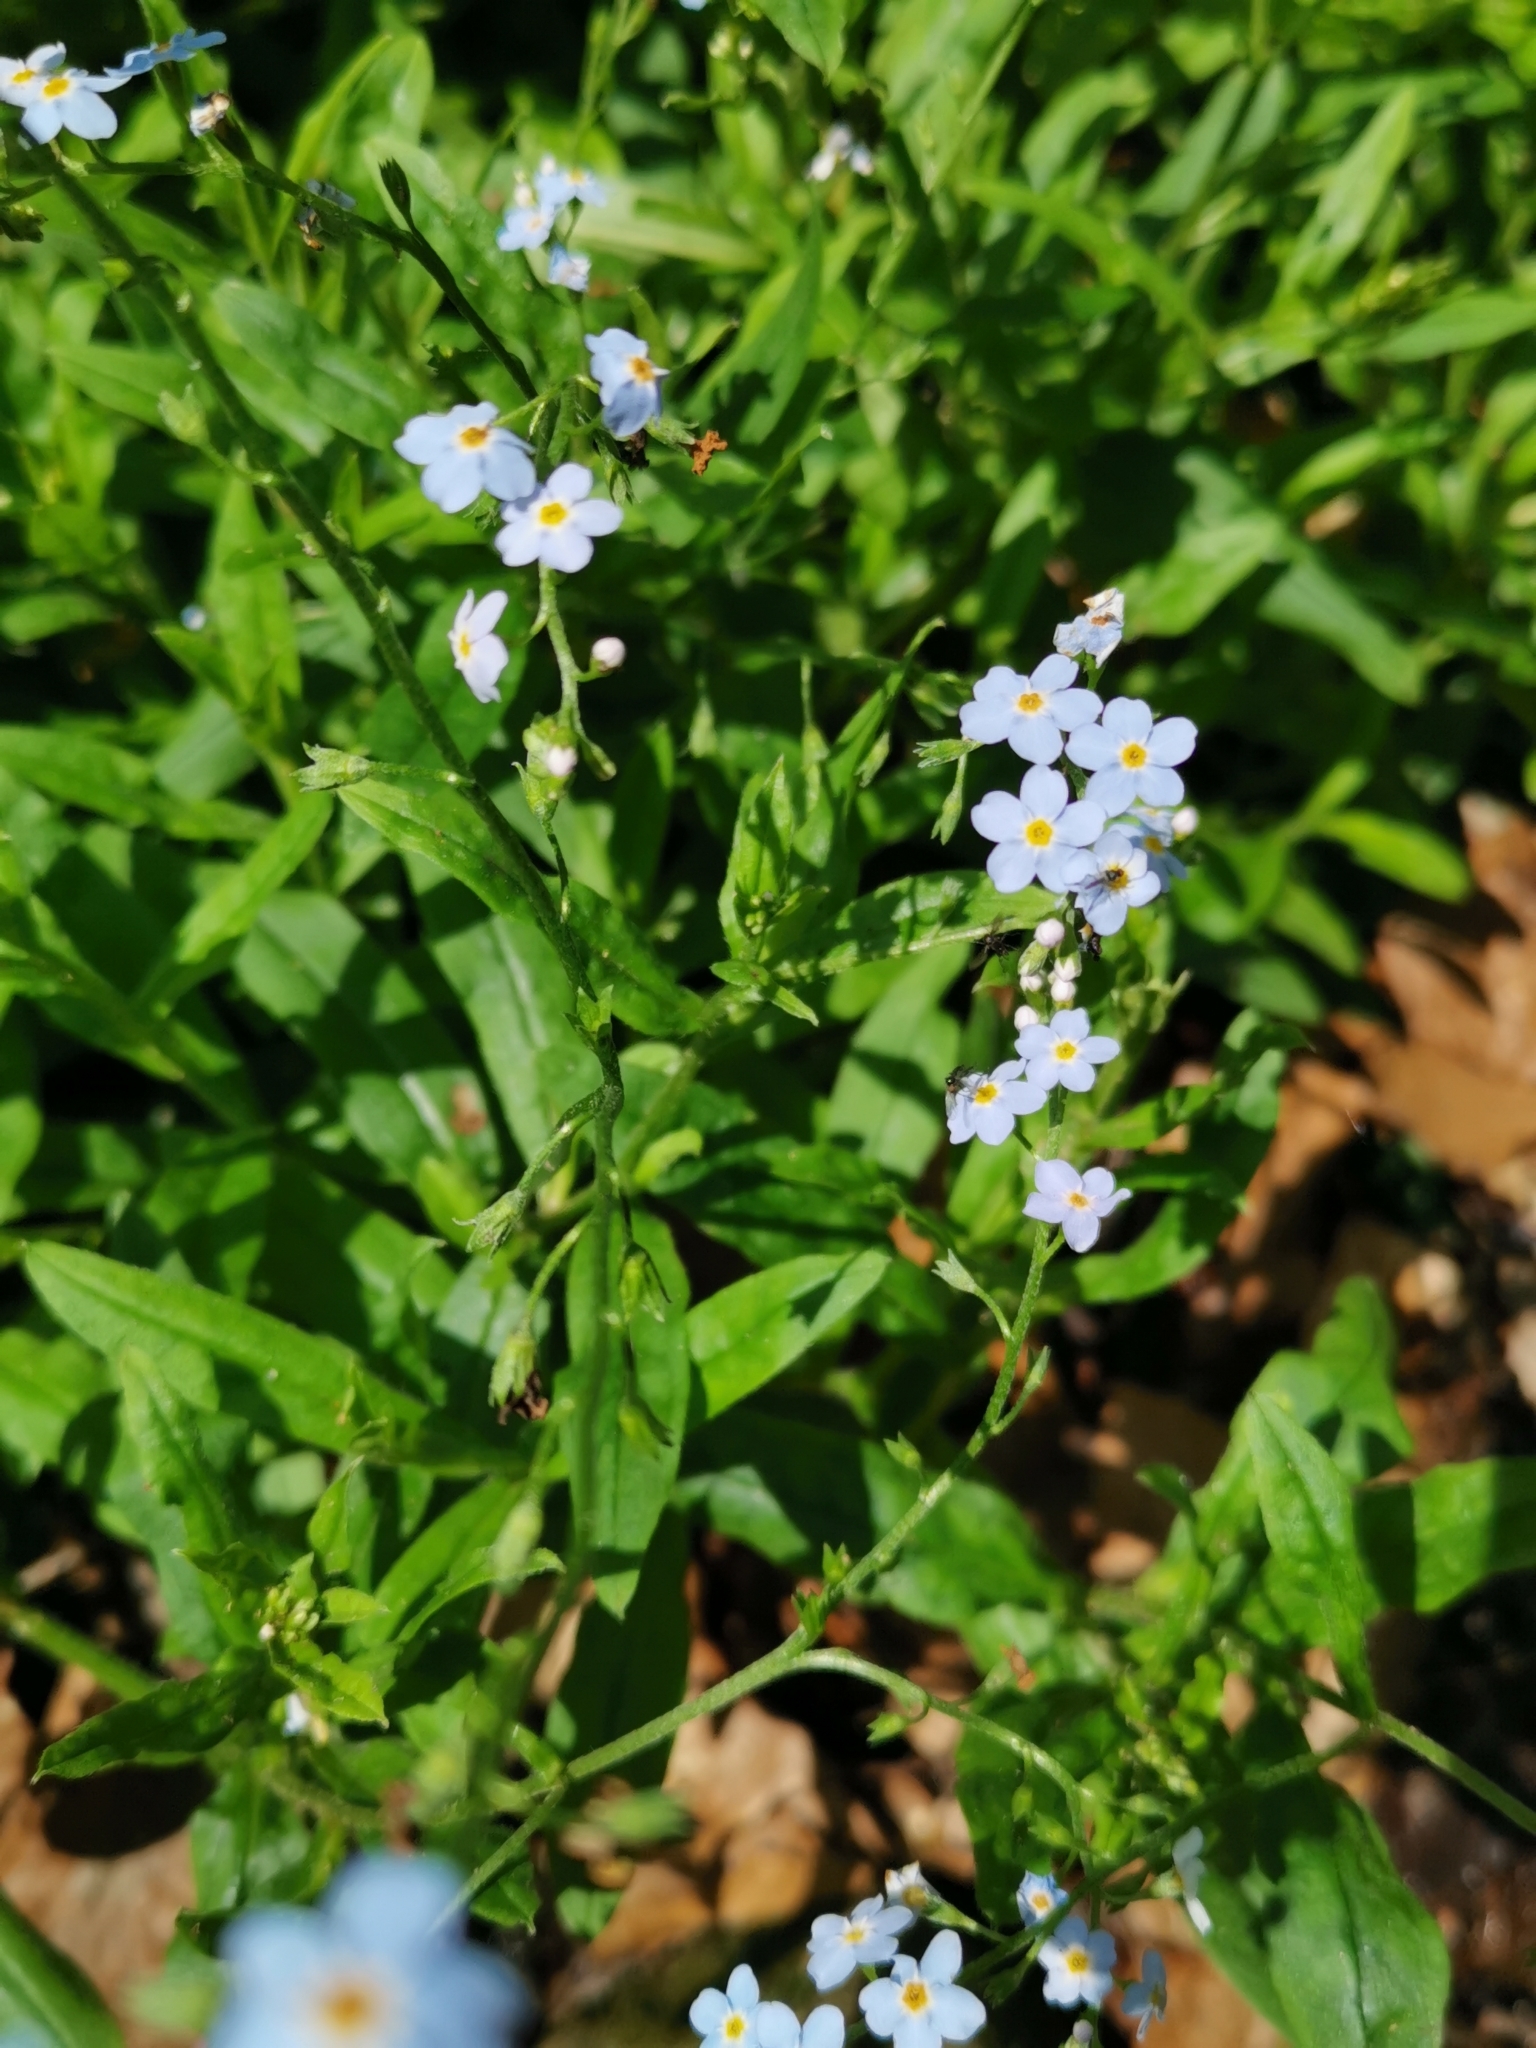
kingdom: Plantae
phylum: Tracheophyta
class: Magnoliopsida
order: Boraginales
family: Boraginaceae
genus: Myosotis
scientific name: Myosotis scorpioides
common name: Water forget-me-not
